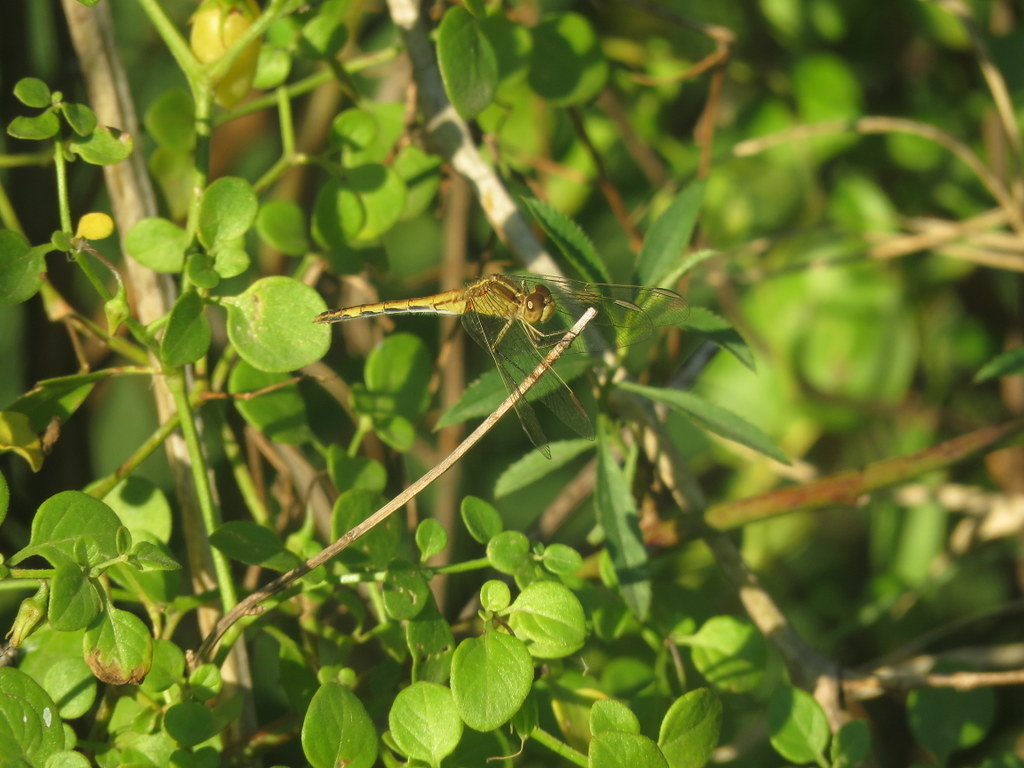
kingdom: Animalia
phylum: Arthropoda
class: Insecta
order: Odonata
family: Libellulidae
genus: Erythrodiplax
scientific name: Erythrodiplax nigricans
